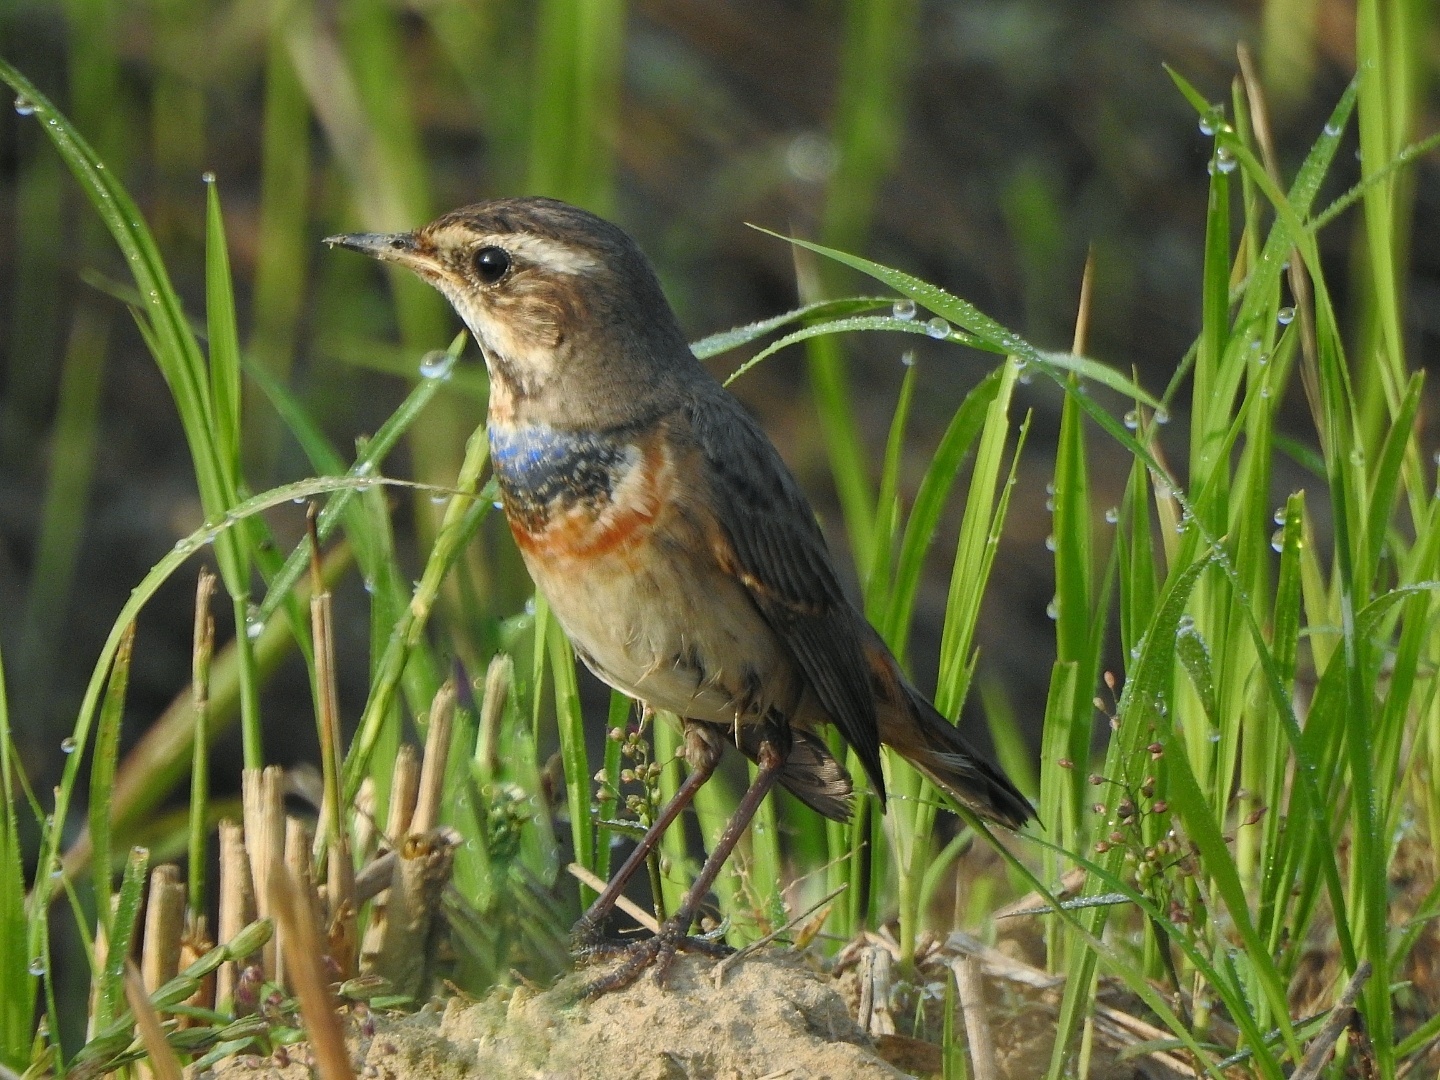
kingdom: Animalia
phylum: Chordata
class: Aves
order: Passeriformes
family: Muscicapidae
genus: Luscinia
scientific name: Luscinia svecica
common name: Bluethroat
